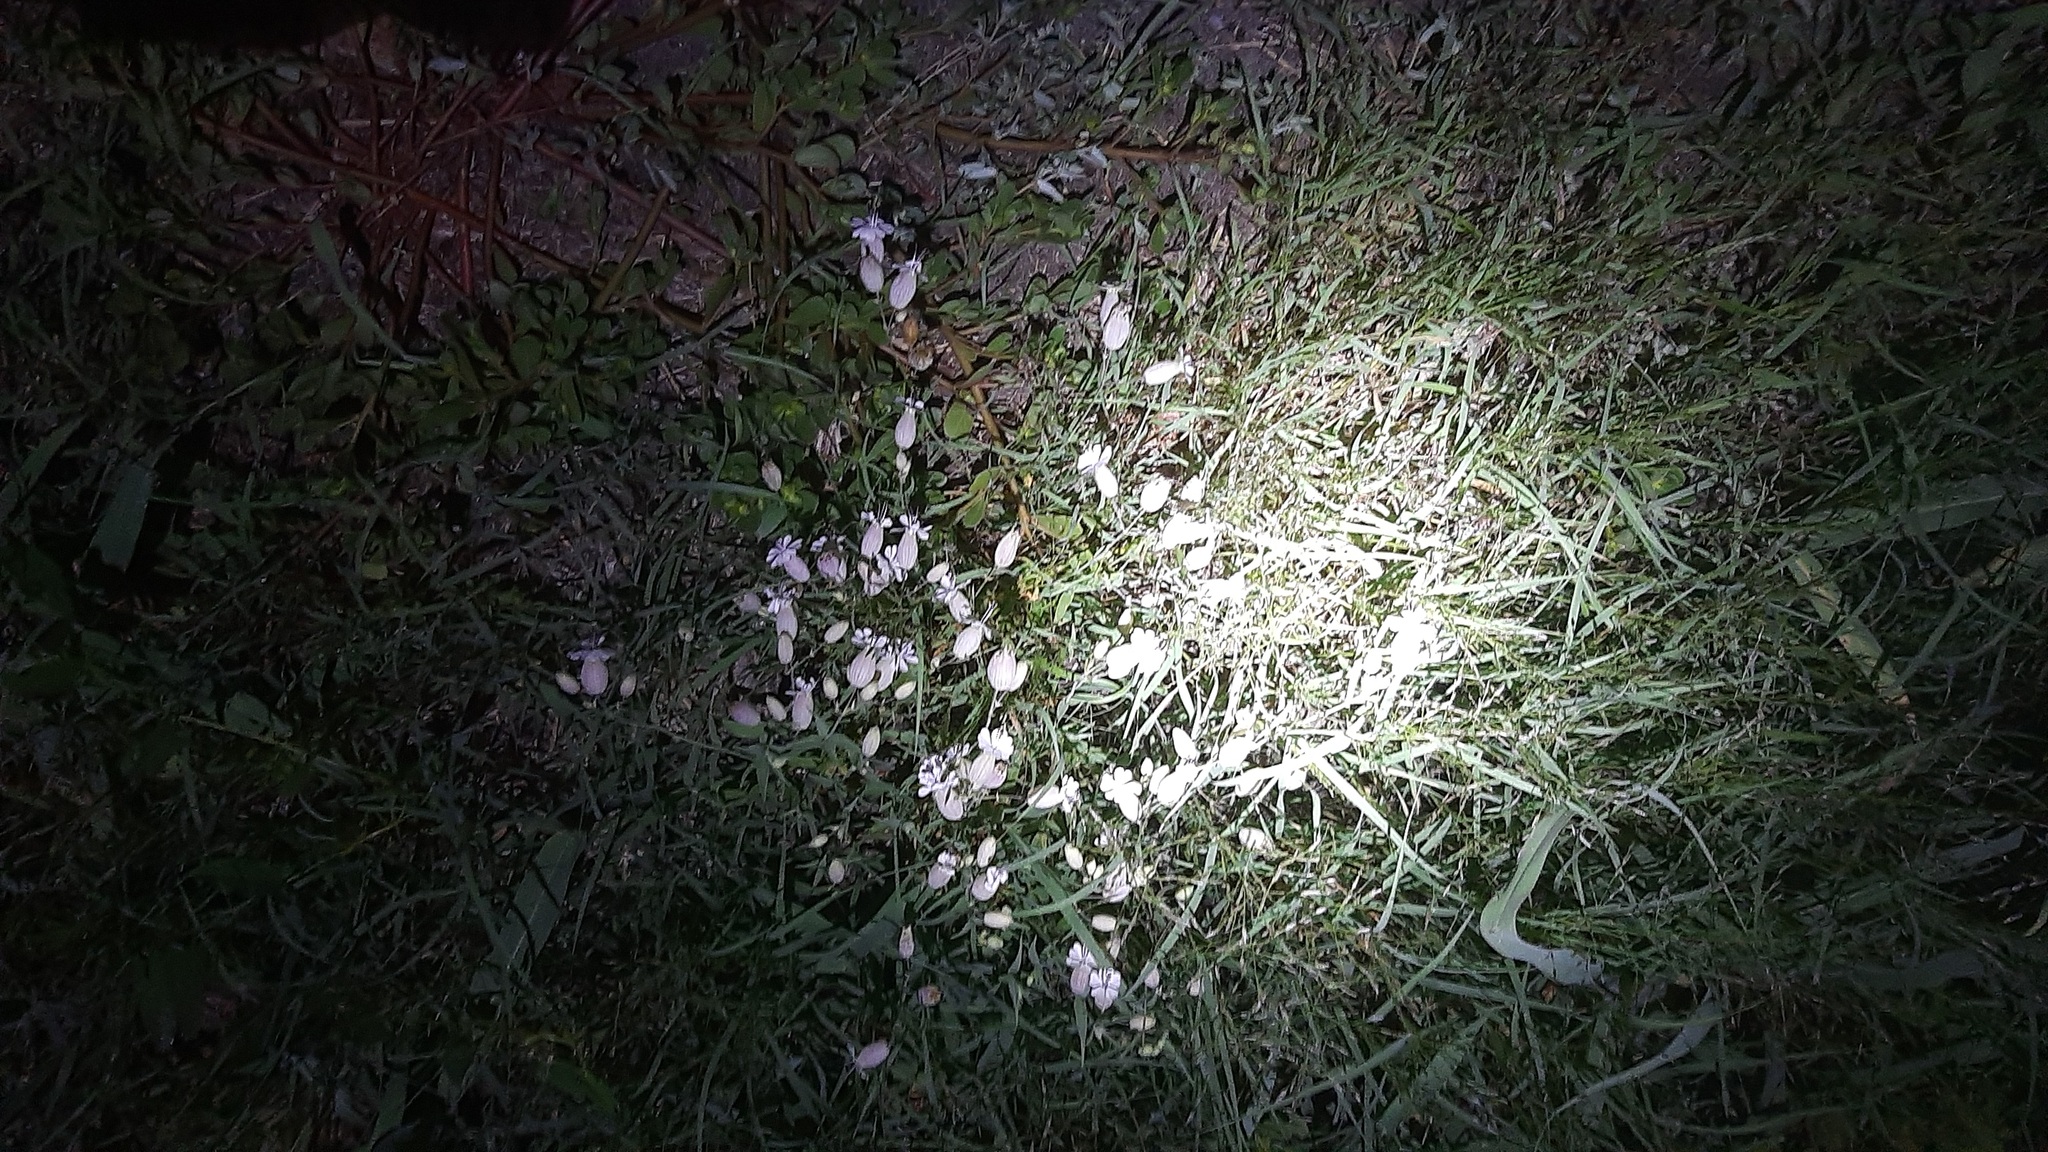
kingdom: Plantae
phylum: Tracheophyta
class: Magnoliopsida
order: Caryophyllales
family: Caryophyllaceae
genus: Silene
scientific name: Silene vulgaris
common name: Bladder campion
